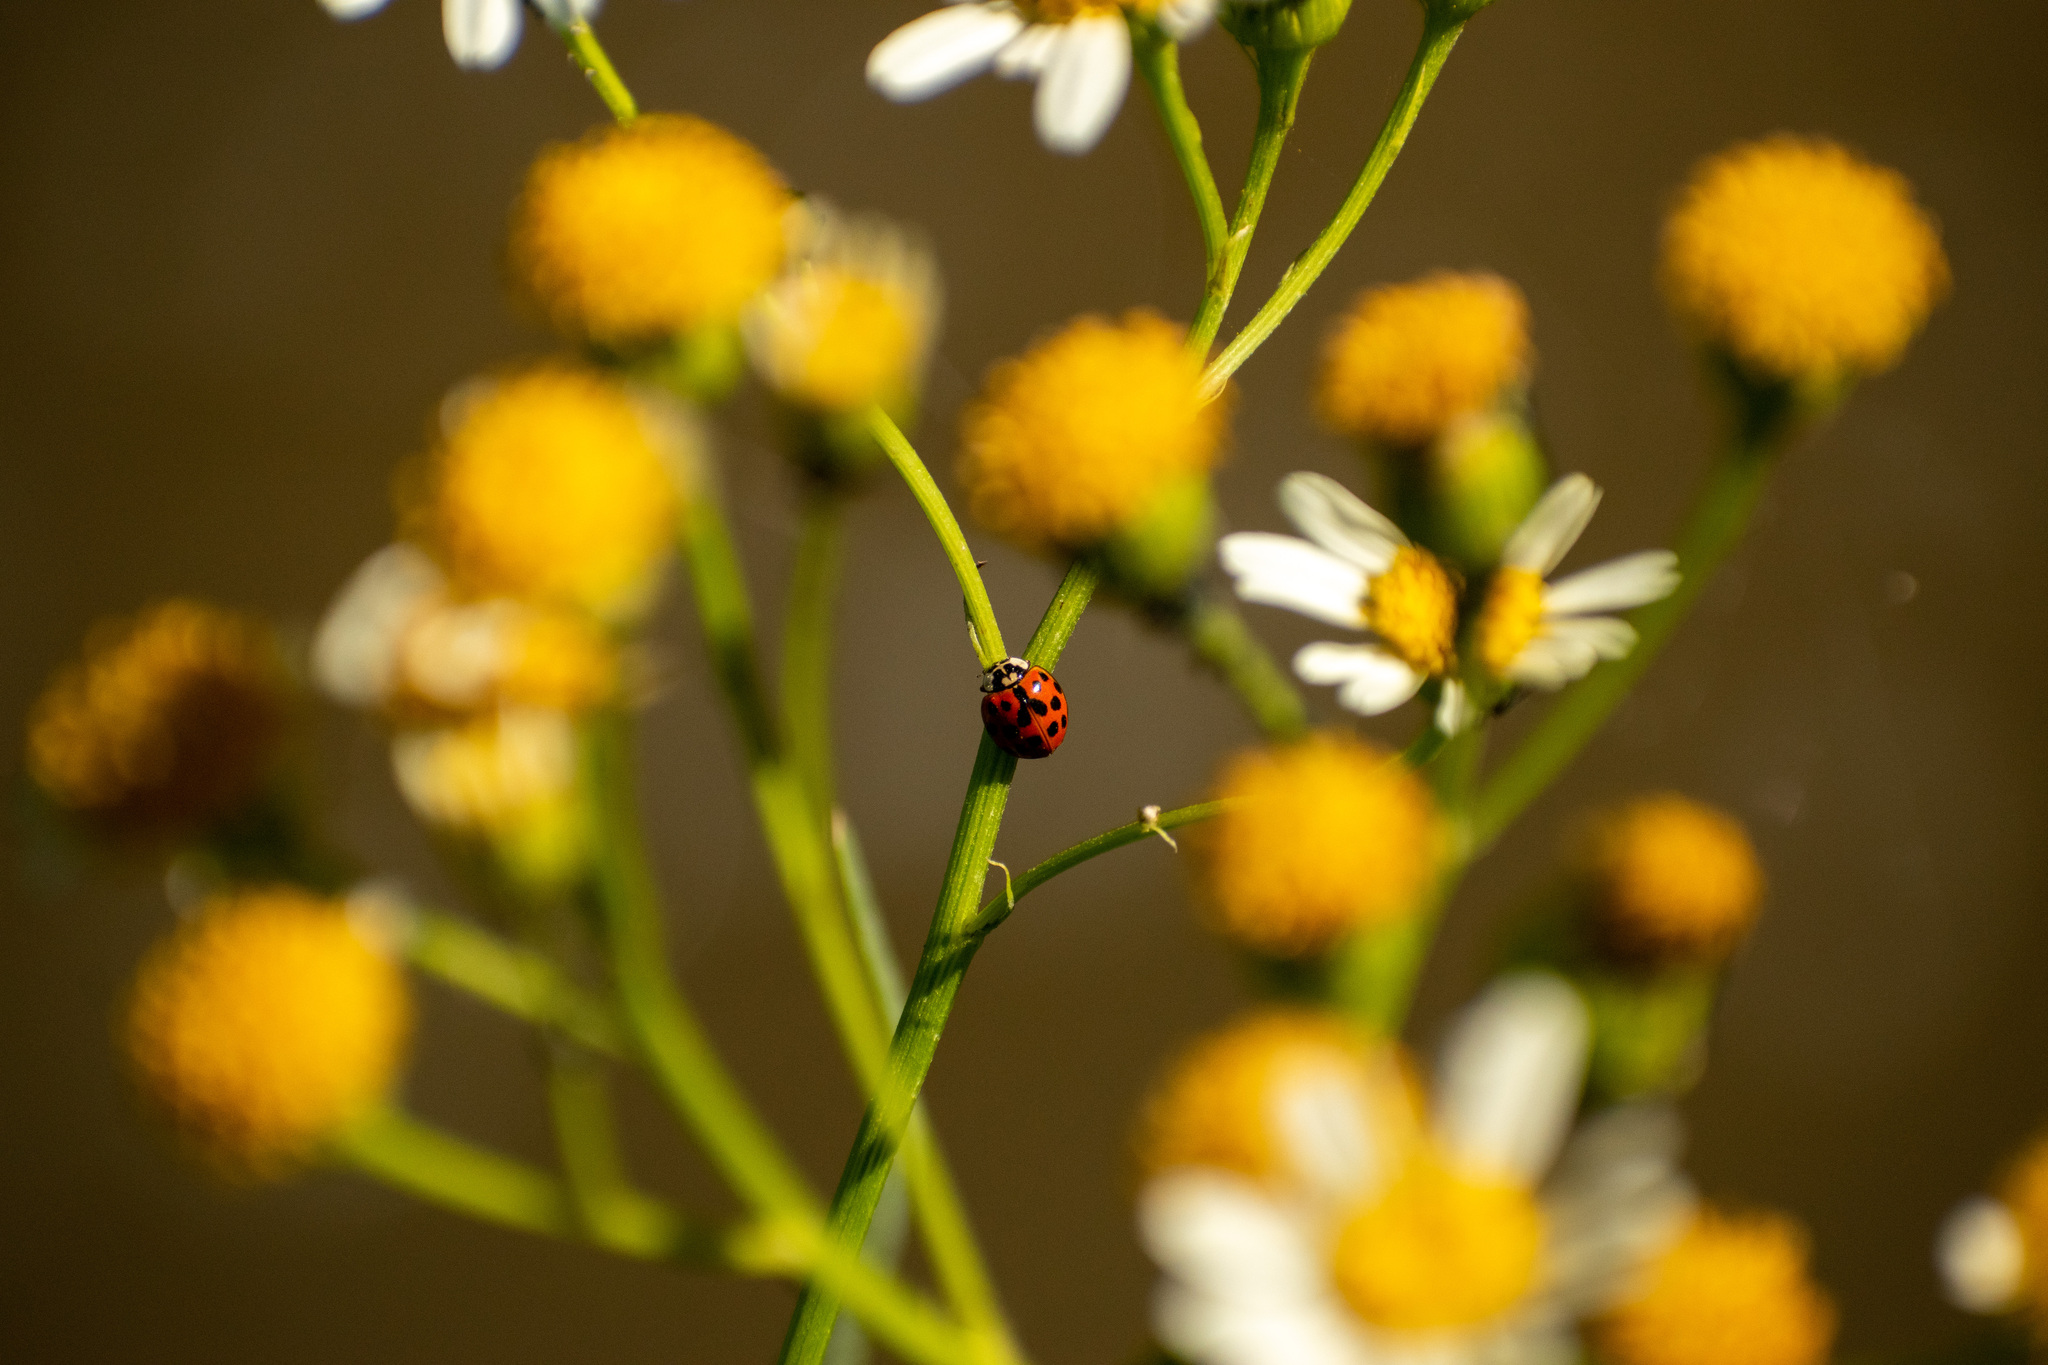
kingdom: Animalia
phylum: Arthropoda
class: Insecta
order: Coleoptera
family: Coccinellidae
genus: Harmonia
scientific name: Harmonia axyridis
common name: Harlequin ladybird
